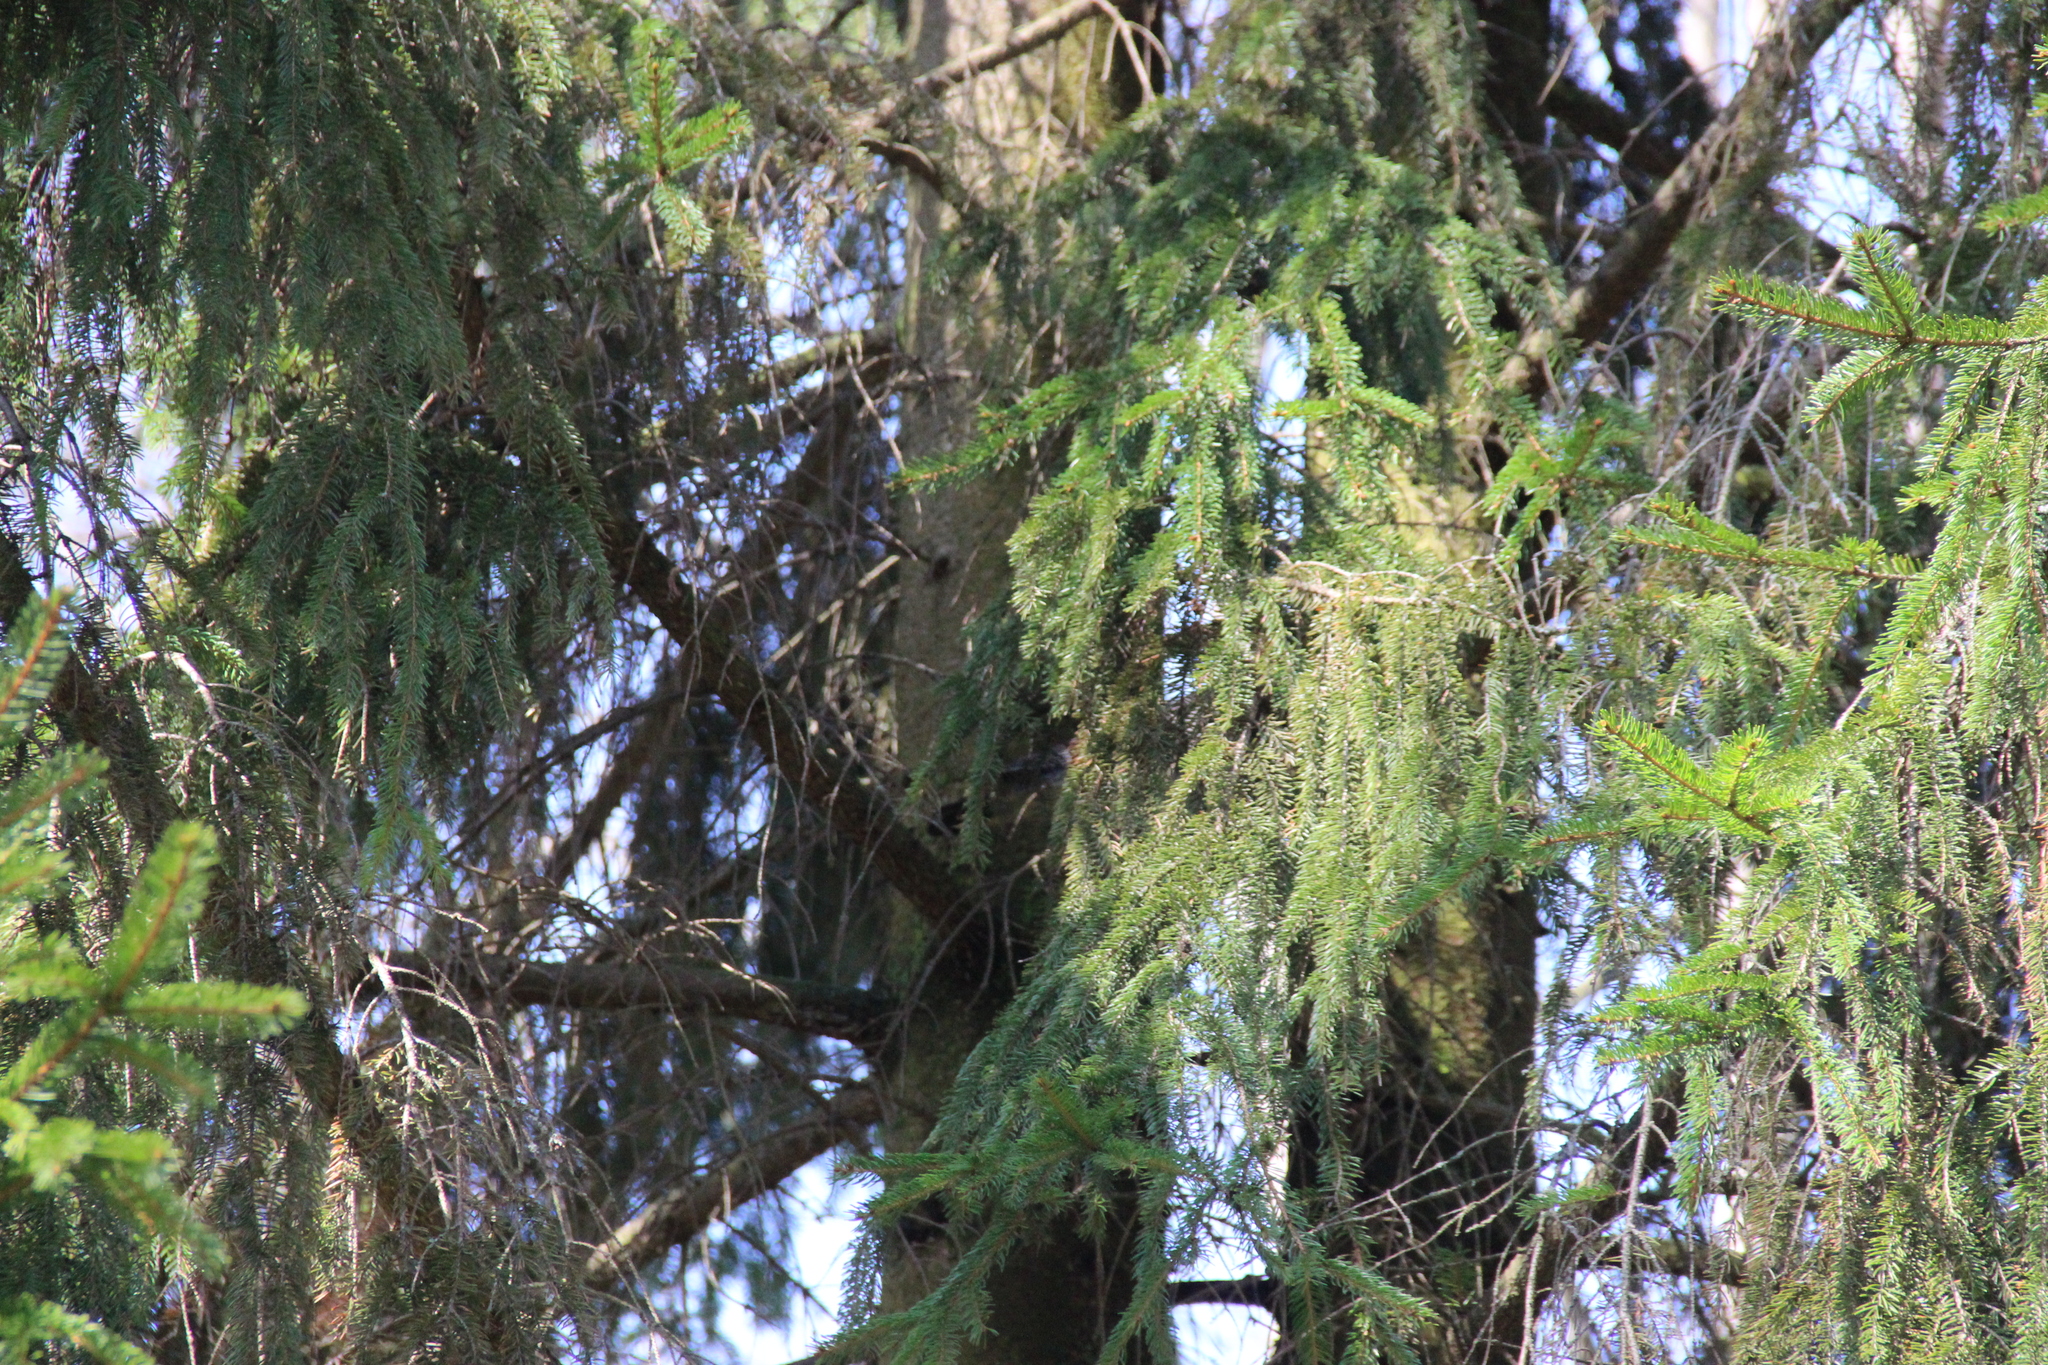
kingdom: Plantae
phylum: Tracheophyta
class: Pinopsida
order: Pinales
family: Pinaceae
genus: Picea
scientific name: Picea abies
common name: Norway spruce
